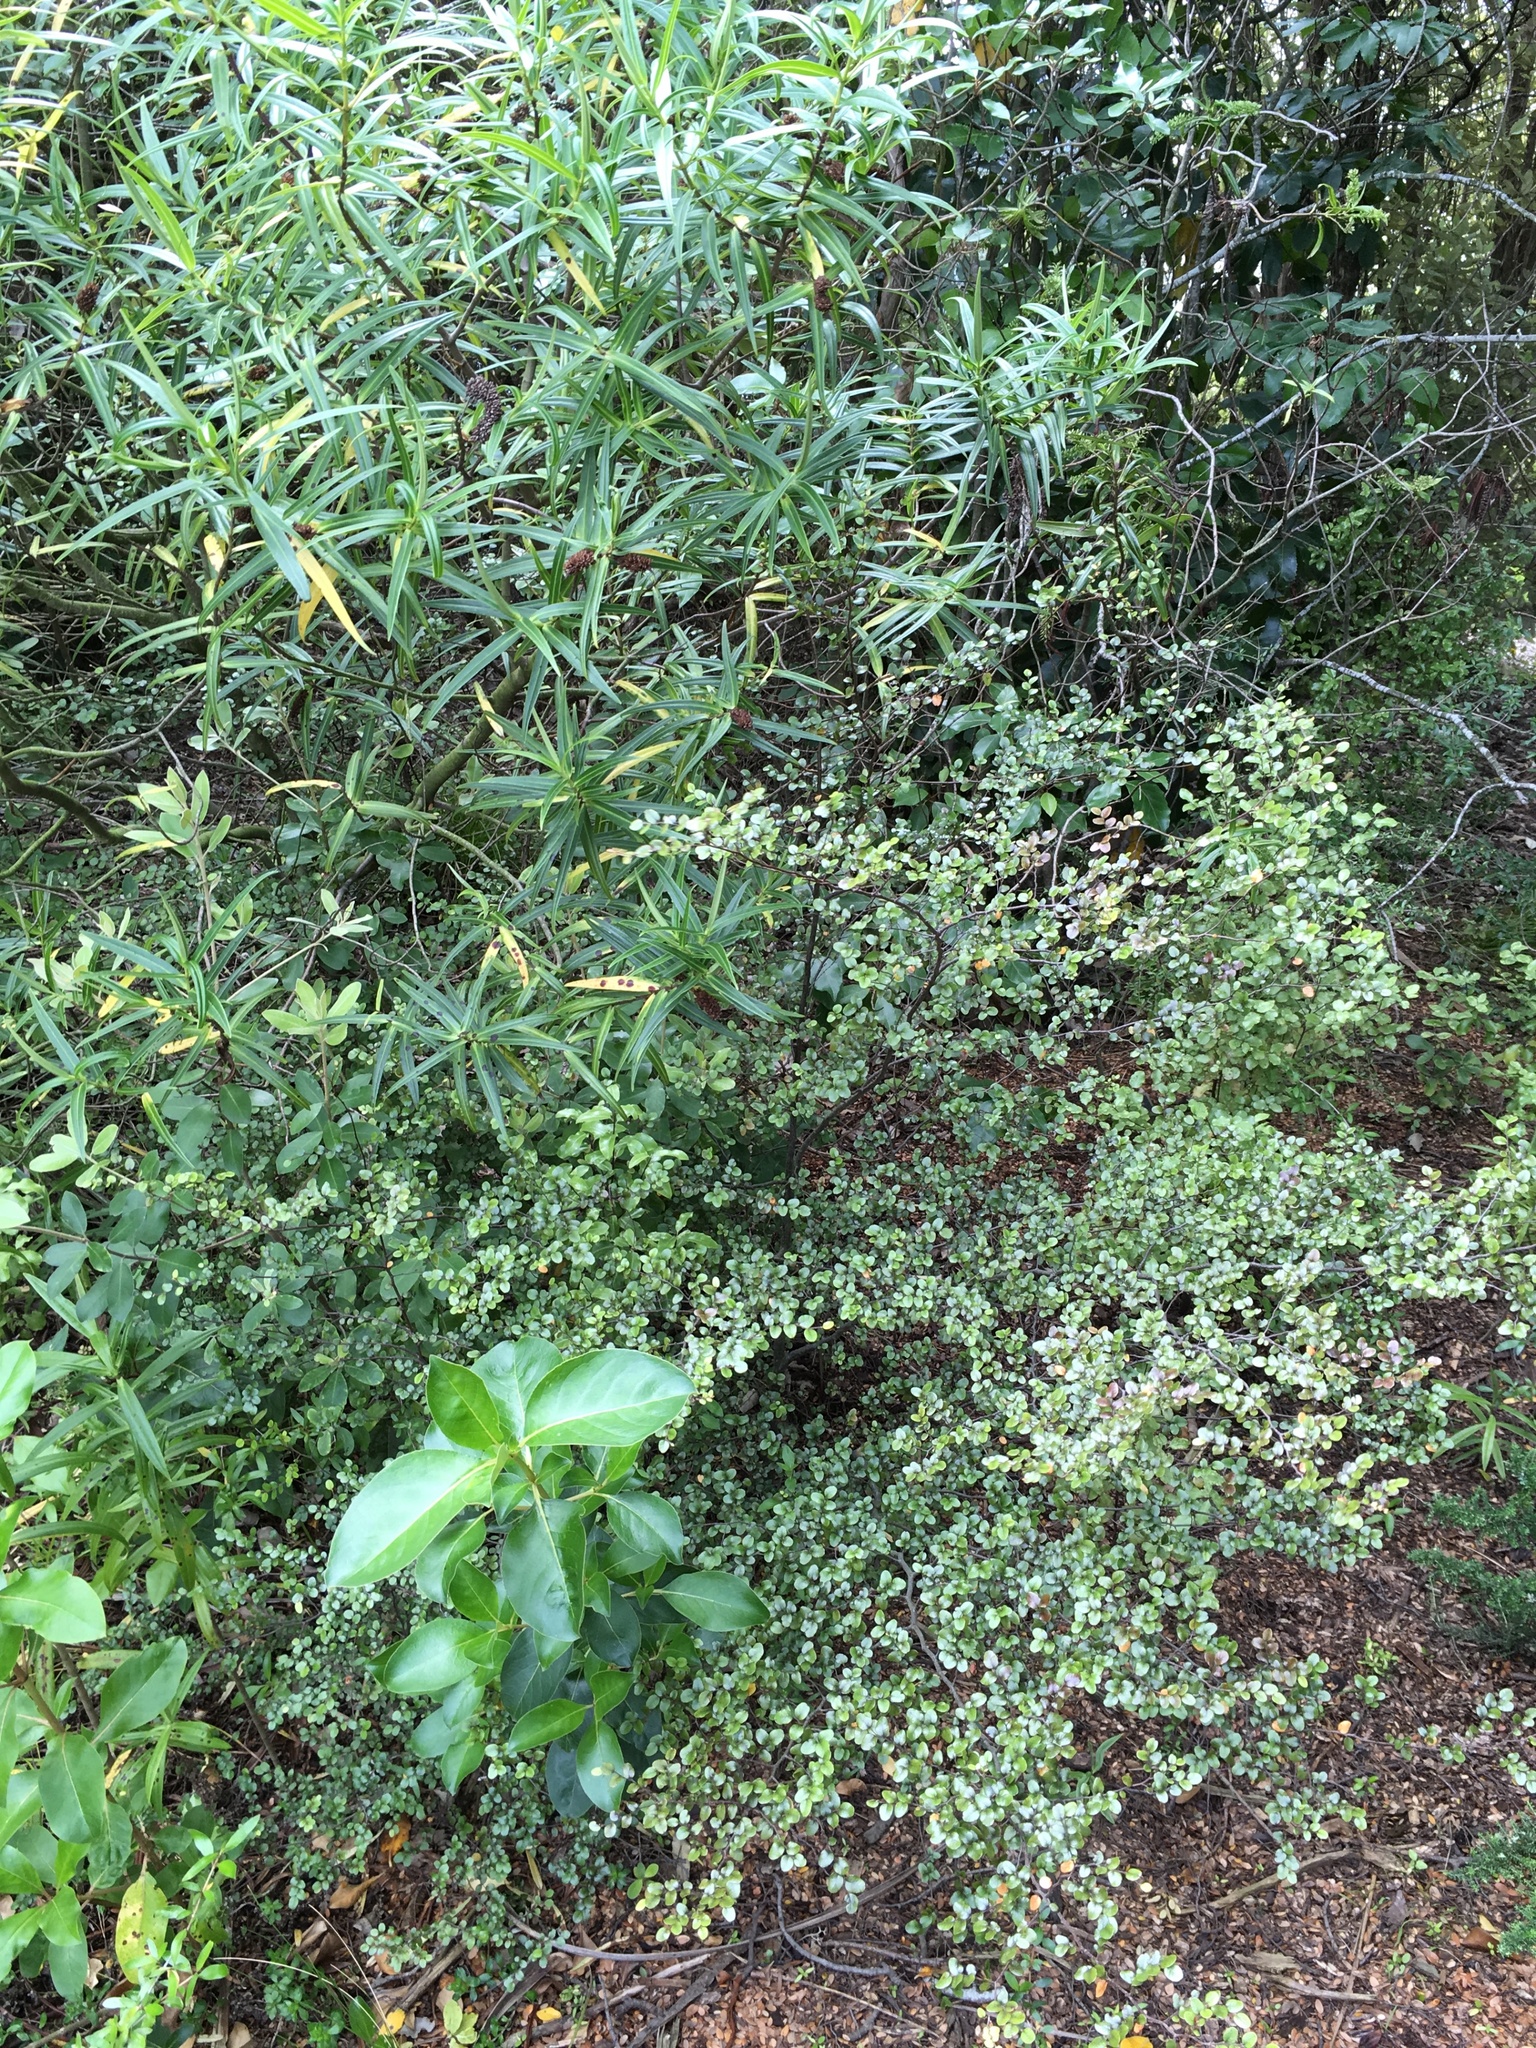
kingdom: Plantae
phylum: Tracheophyta
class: Magnoliopsida
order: Fagales
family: Nothofagaceae
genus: Nothofagus
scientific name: Nothofagus cliffortioides
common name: Mountain beech
